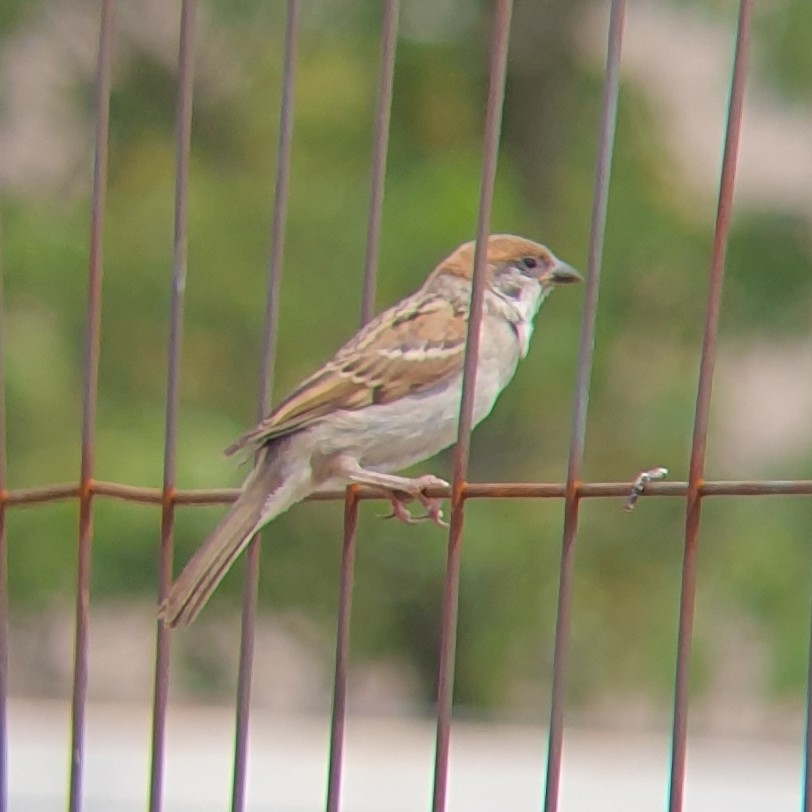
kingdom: Animalia
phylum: Chordata
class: Aves
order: Passeriformes
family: Passeridae
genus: Passer
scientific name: Passer montanus
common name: Eurasian tree sparrow
